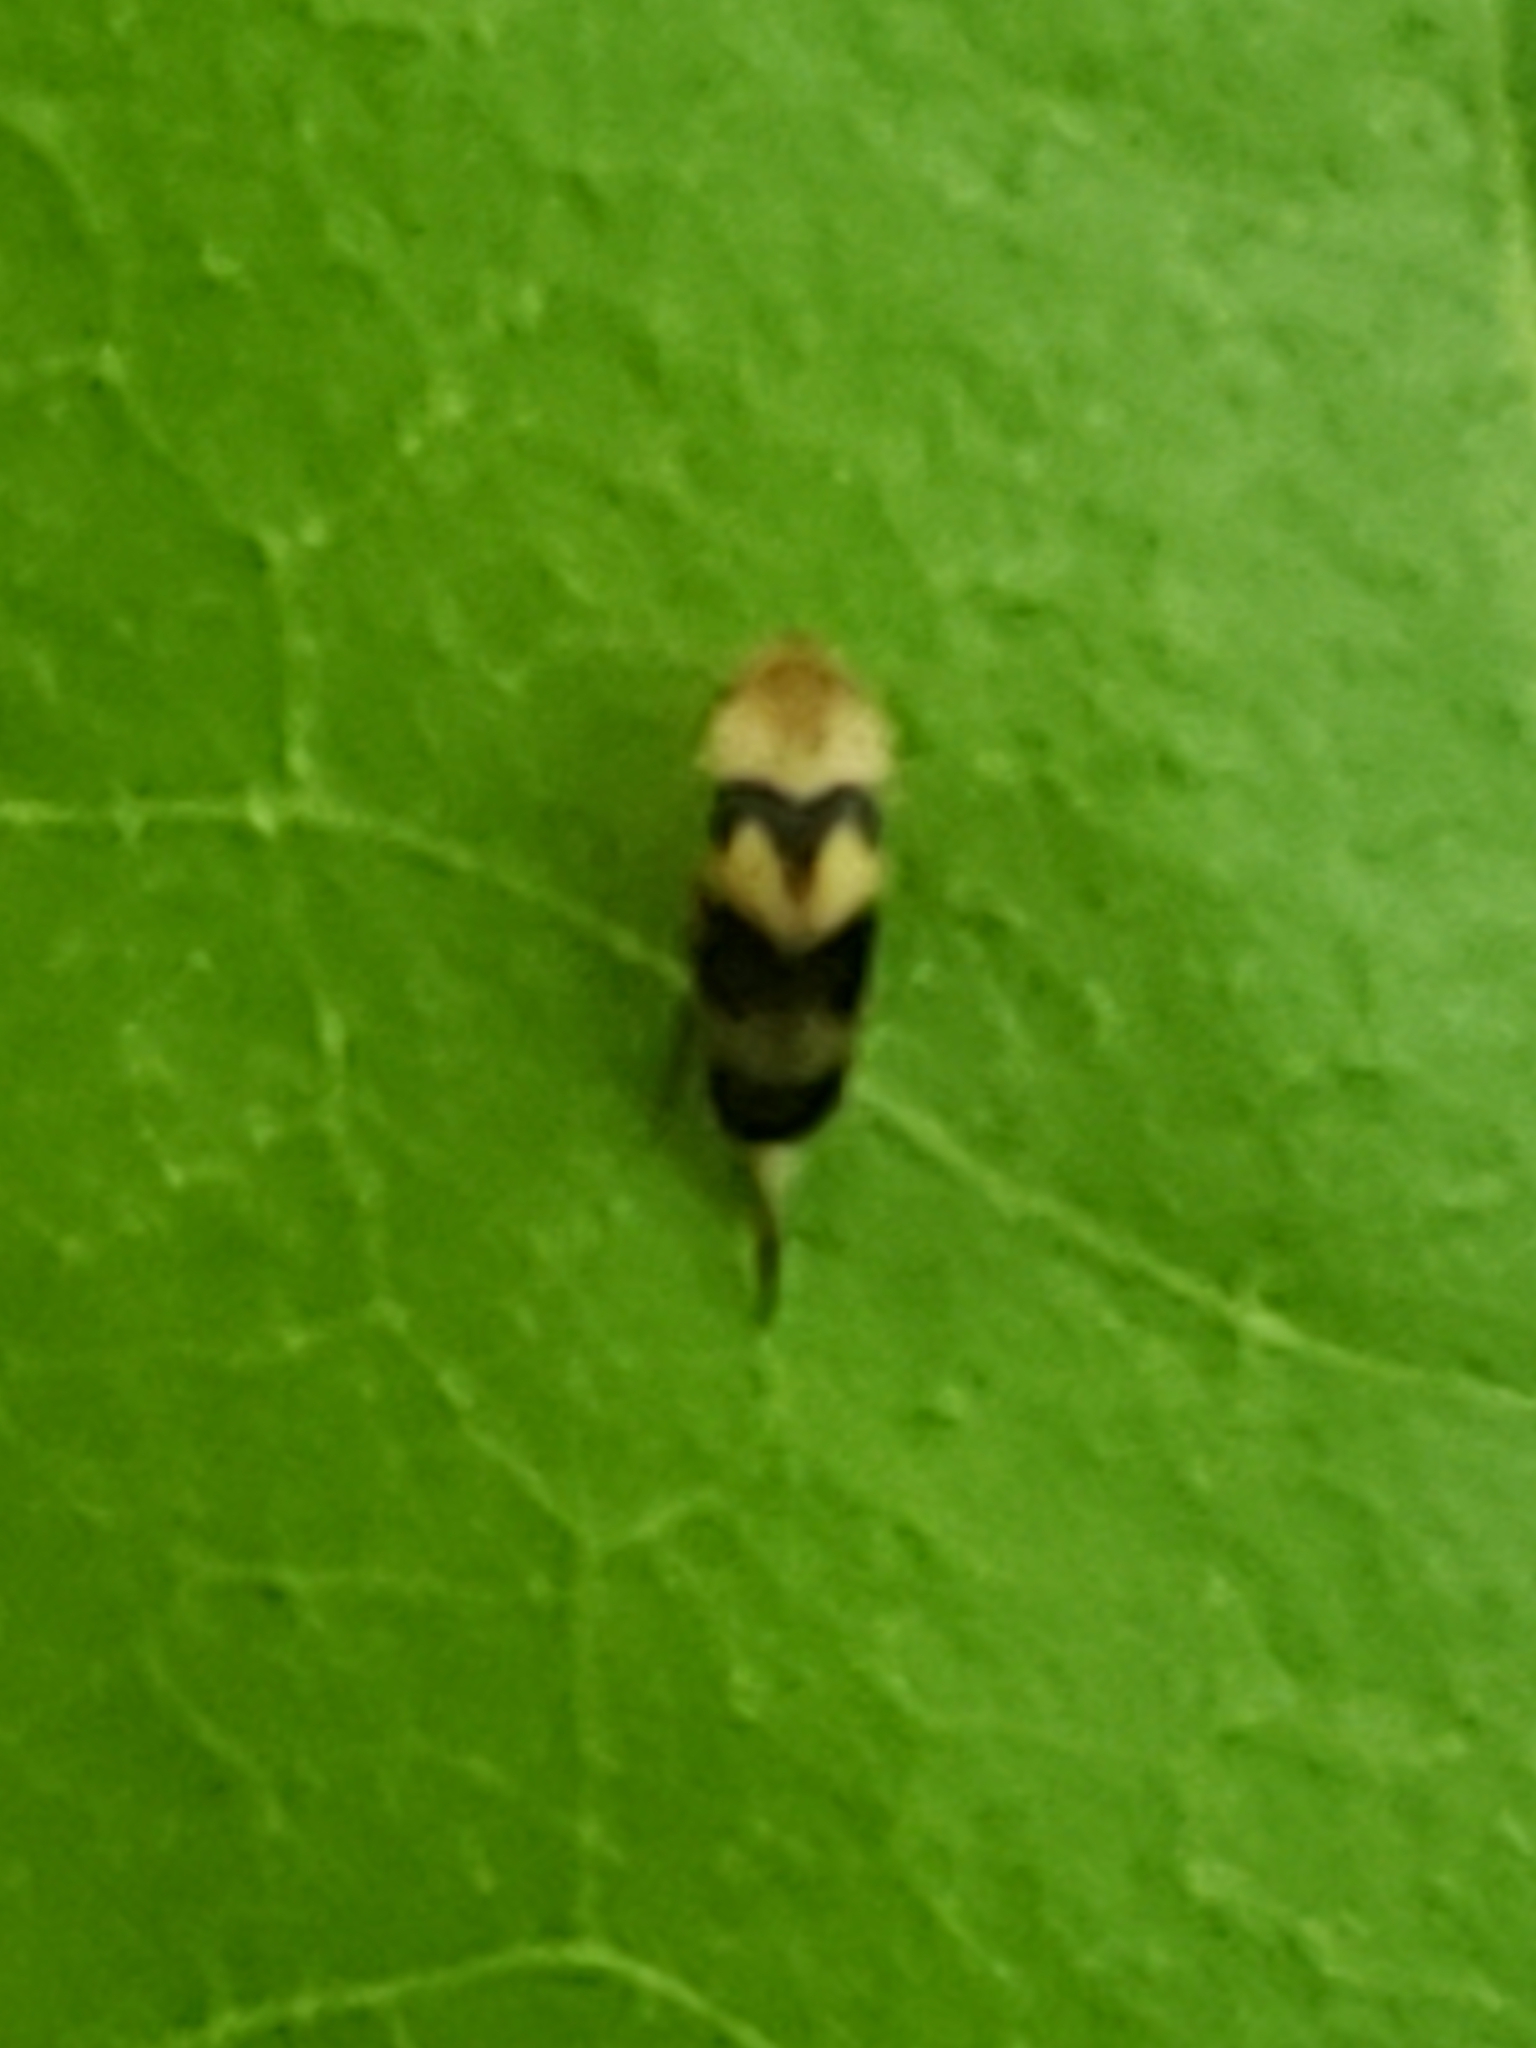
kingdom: Animalia
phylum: Arthropoda
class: Insecta
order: Coleoptera
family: Mordellidae
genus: Mordellistena
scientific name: Mordellistena trifasciata
